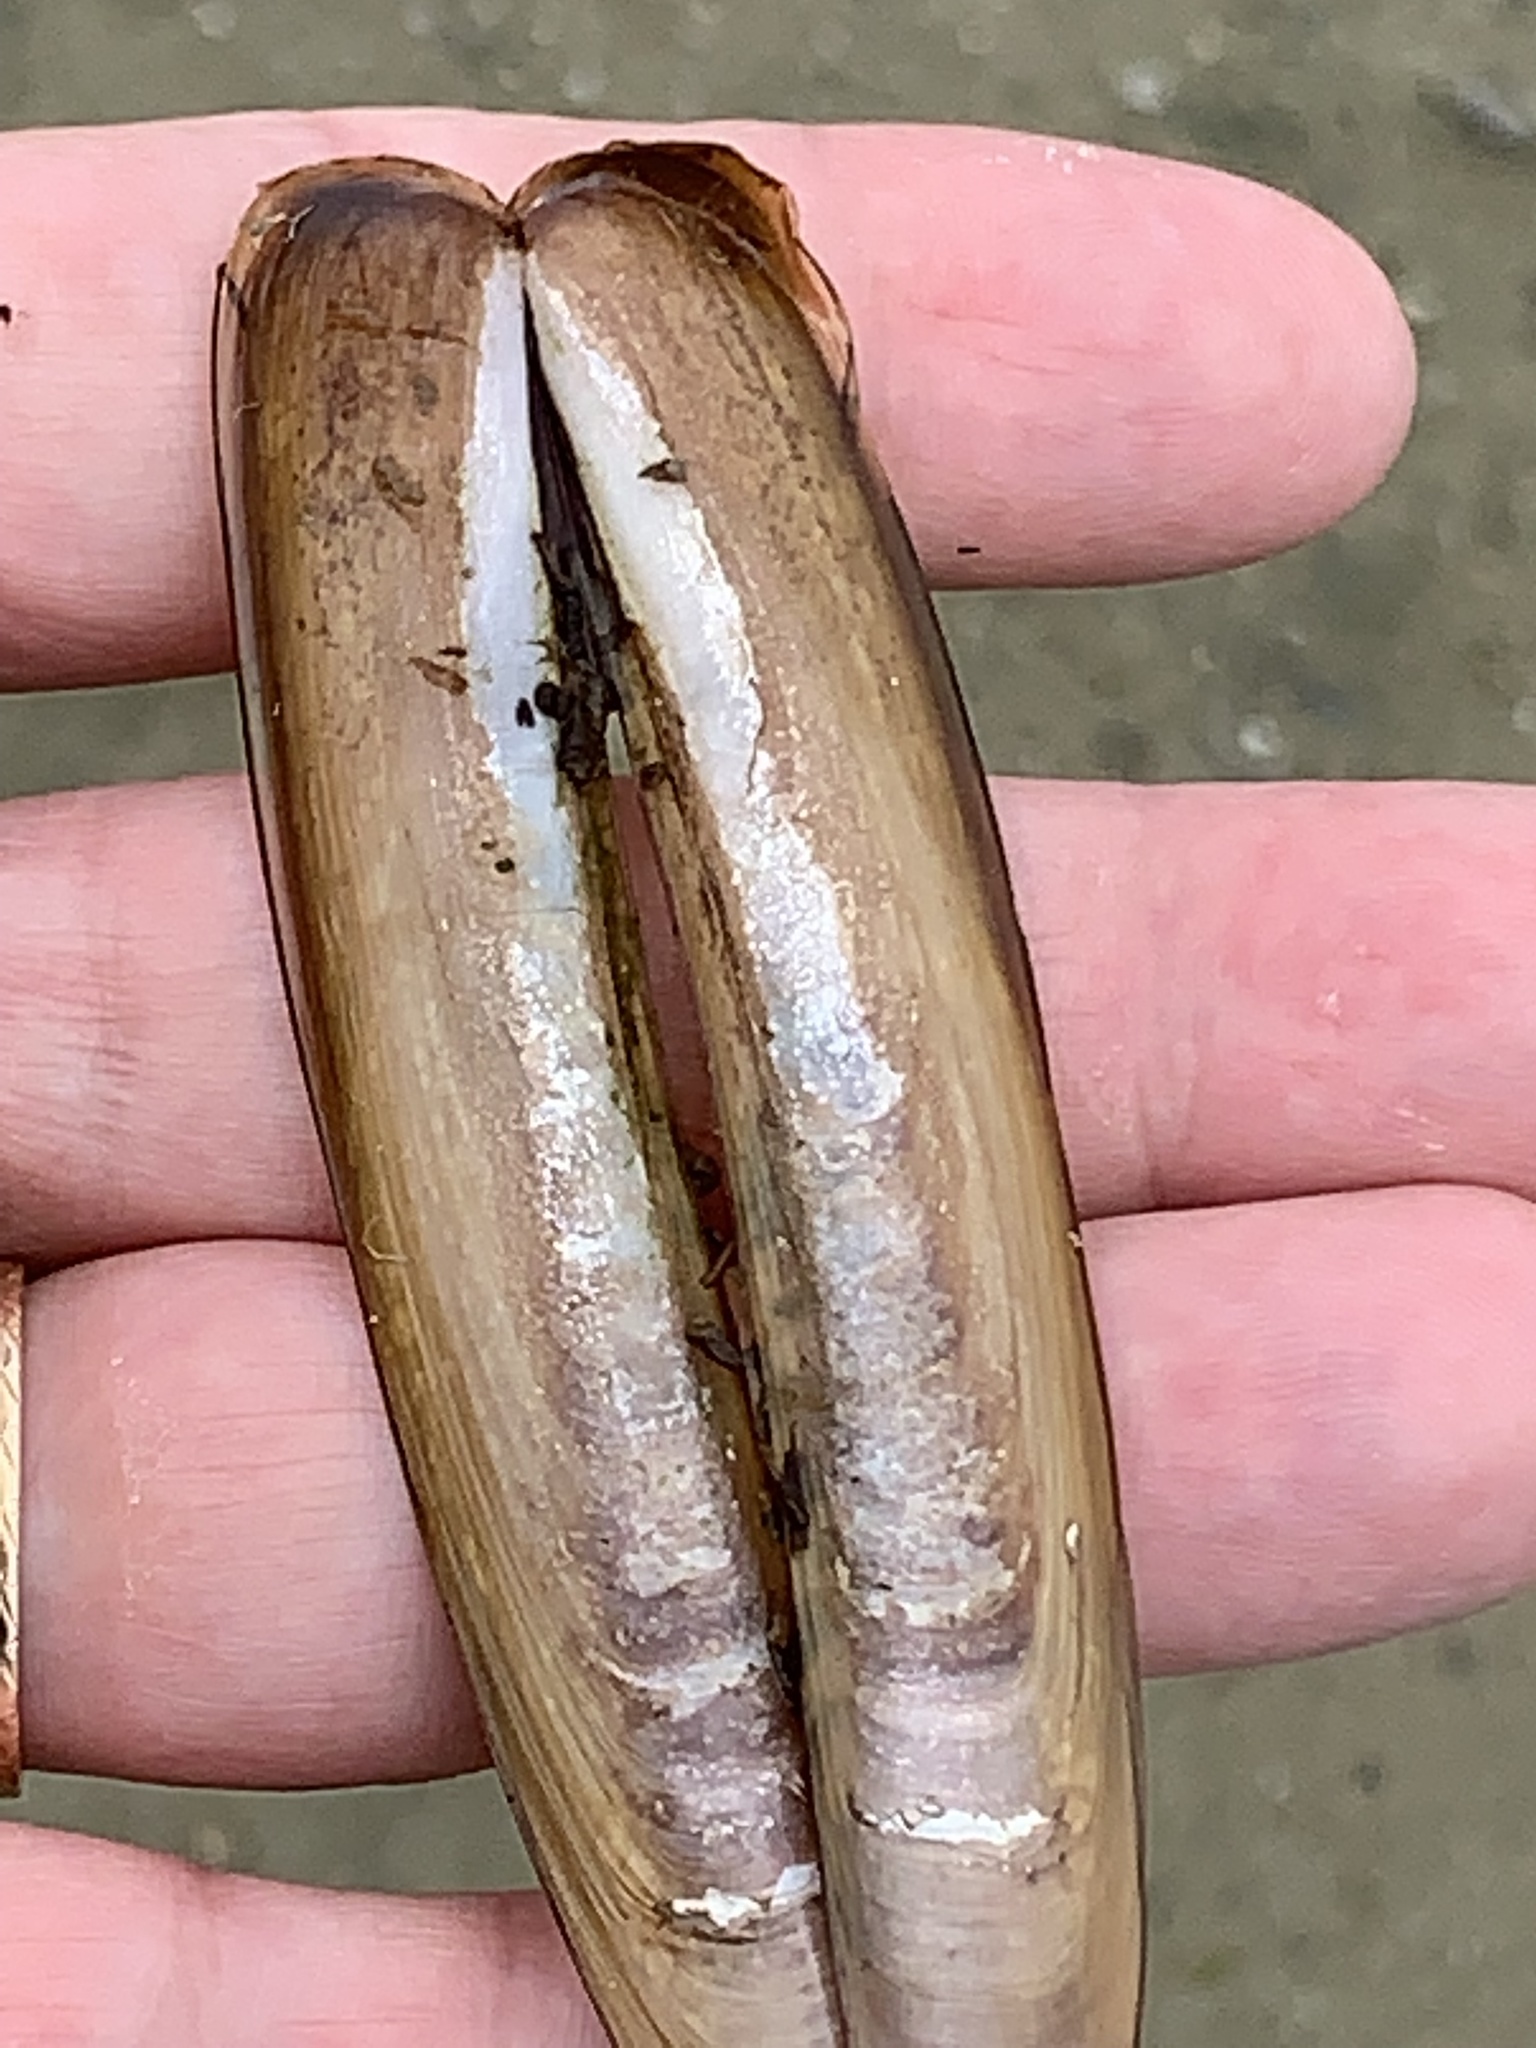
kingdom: Animalia
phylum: Mollusca
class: Bivalvia
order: Adapedonta
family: Pharidae
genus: Ensis
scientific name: Ensis leei
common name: American jack knife clam
